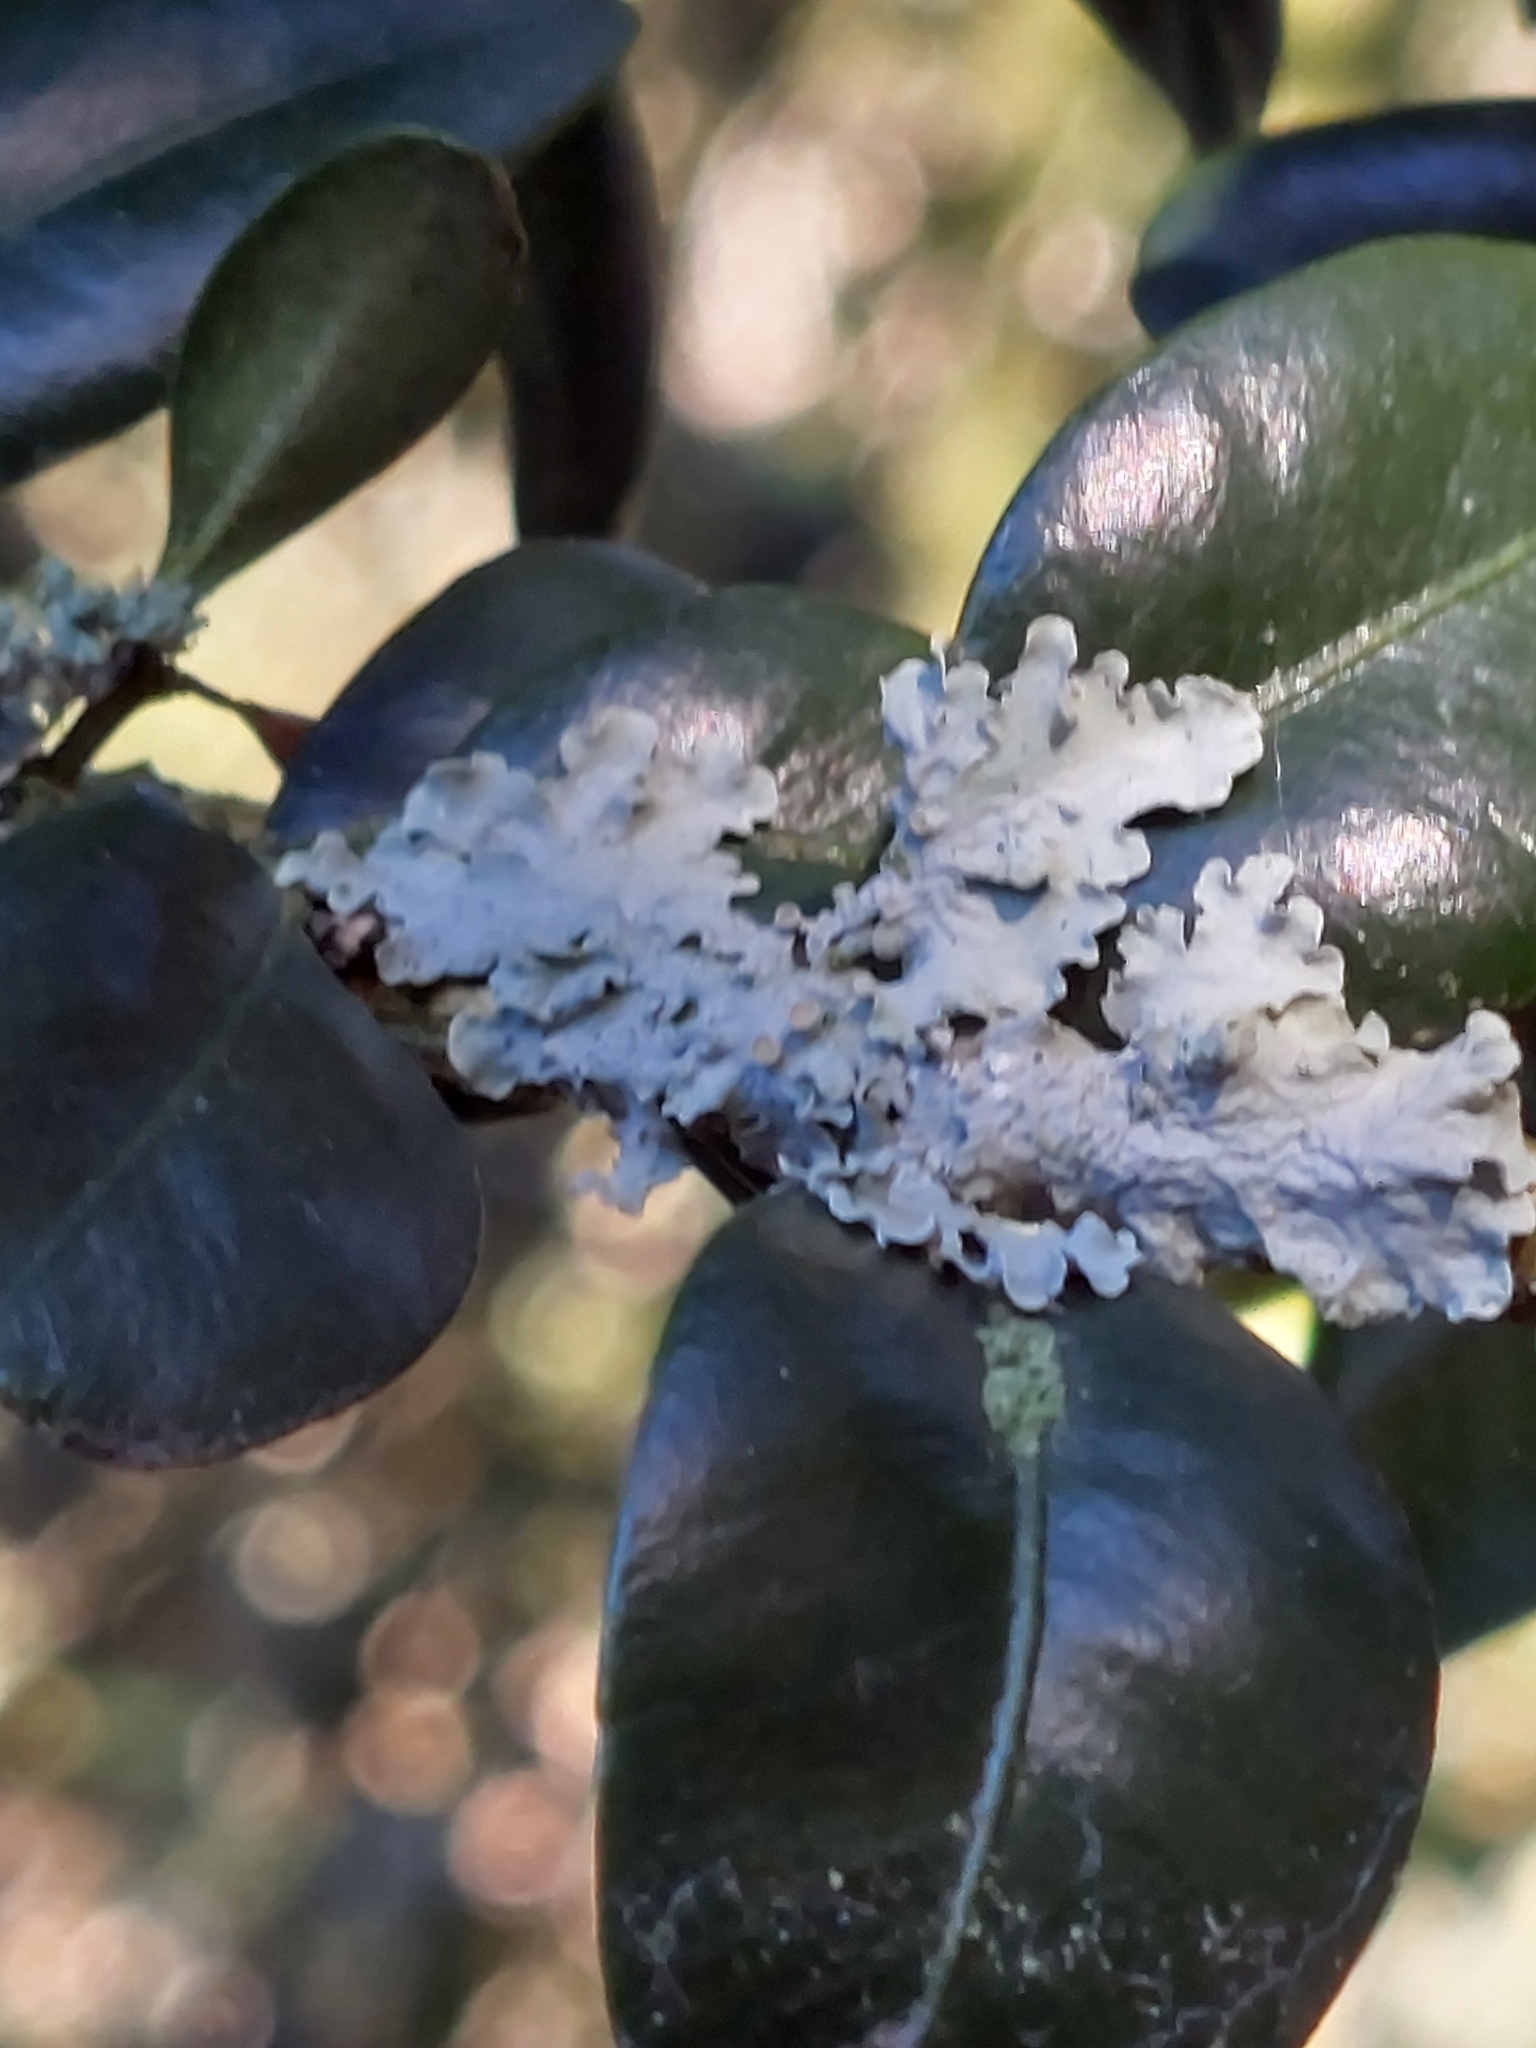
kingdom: Fungi
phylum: Ascomycota
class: Lecanoromycetes
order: Teloschistales
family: Teloschistaceae
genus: Xanthoria
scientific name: Xanthoria parietina
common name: Common orange lichen
